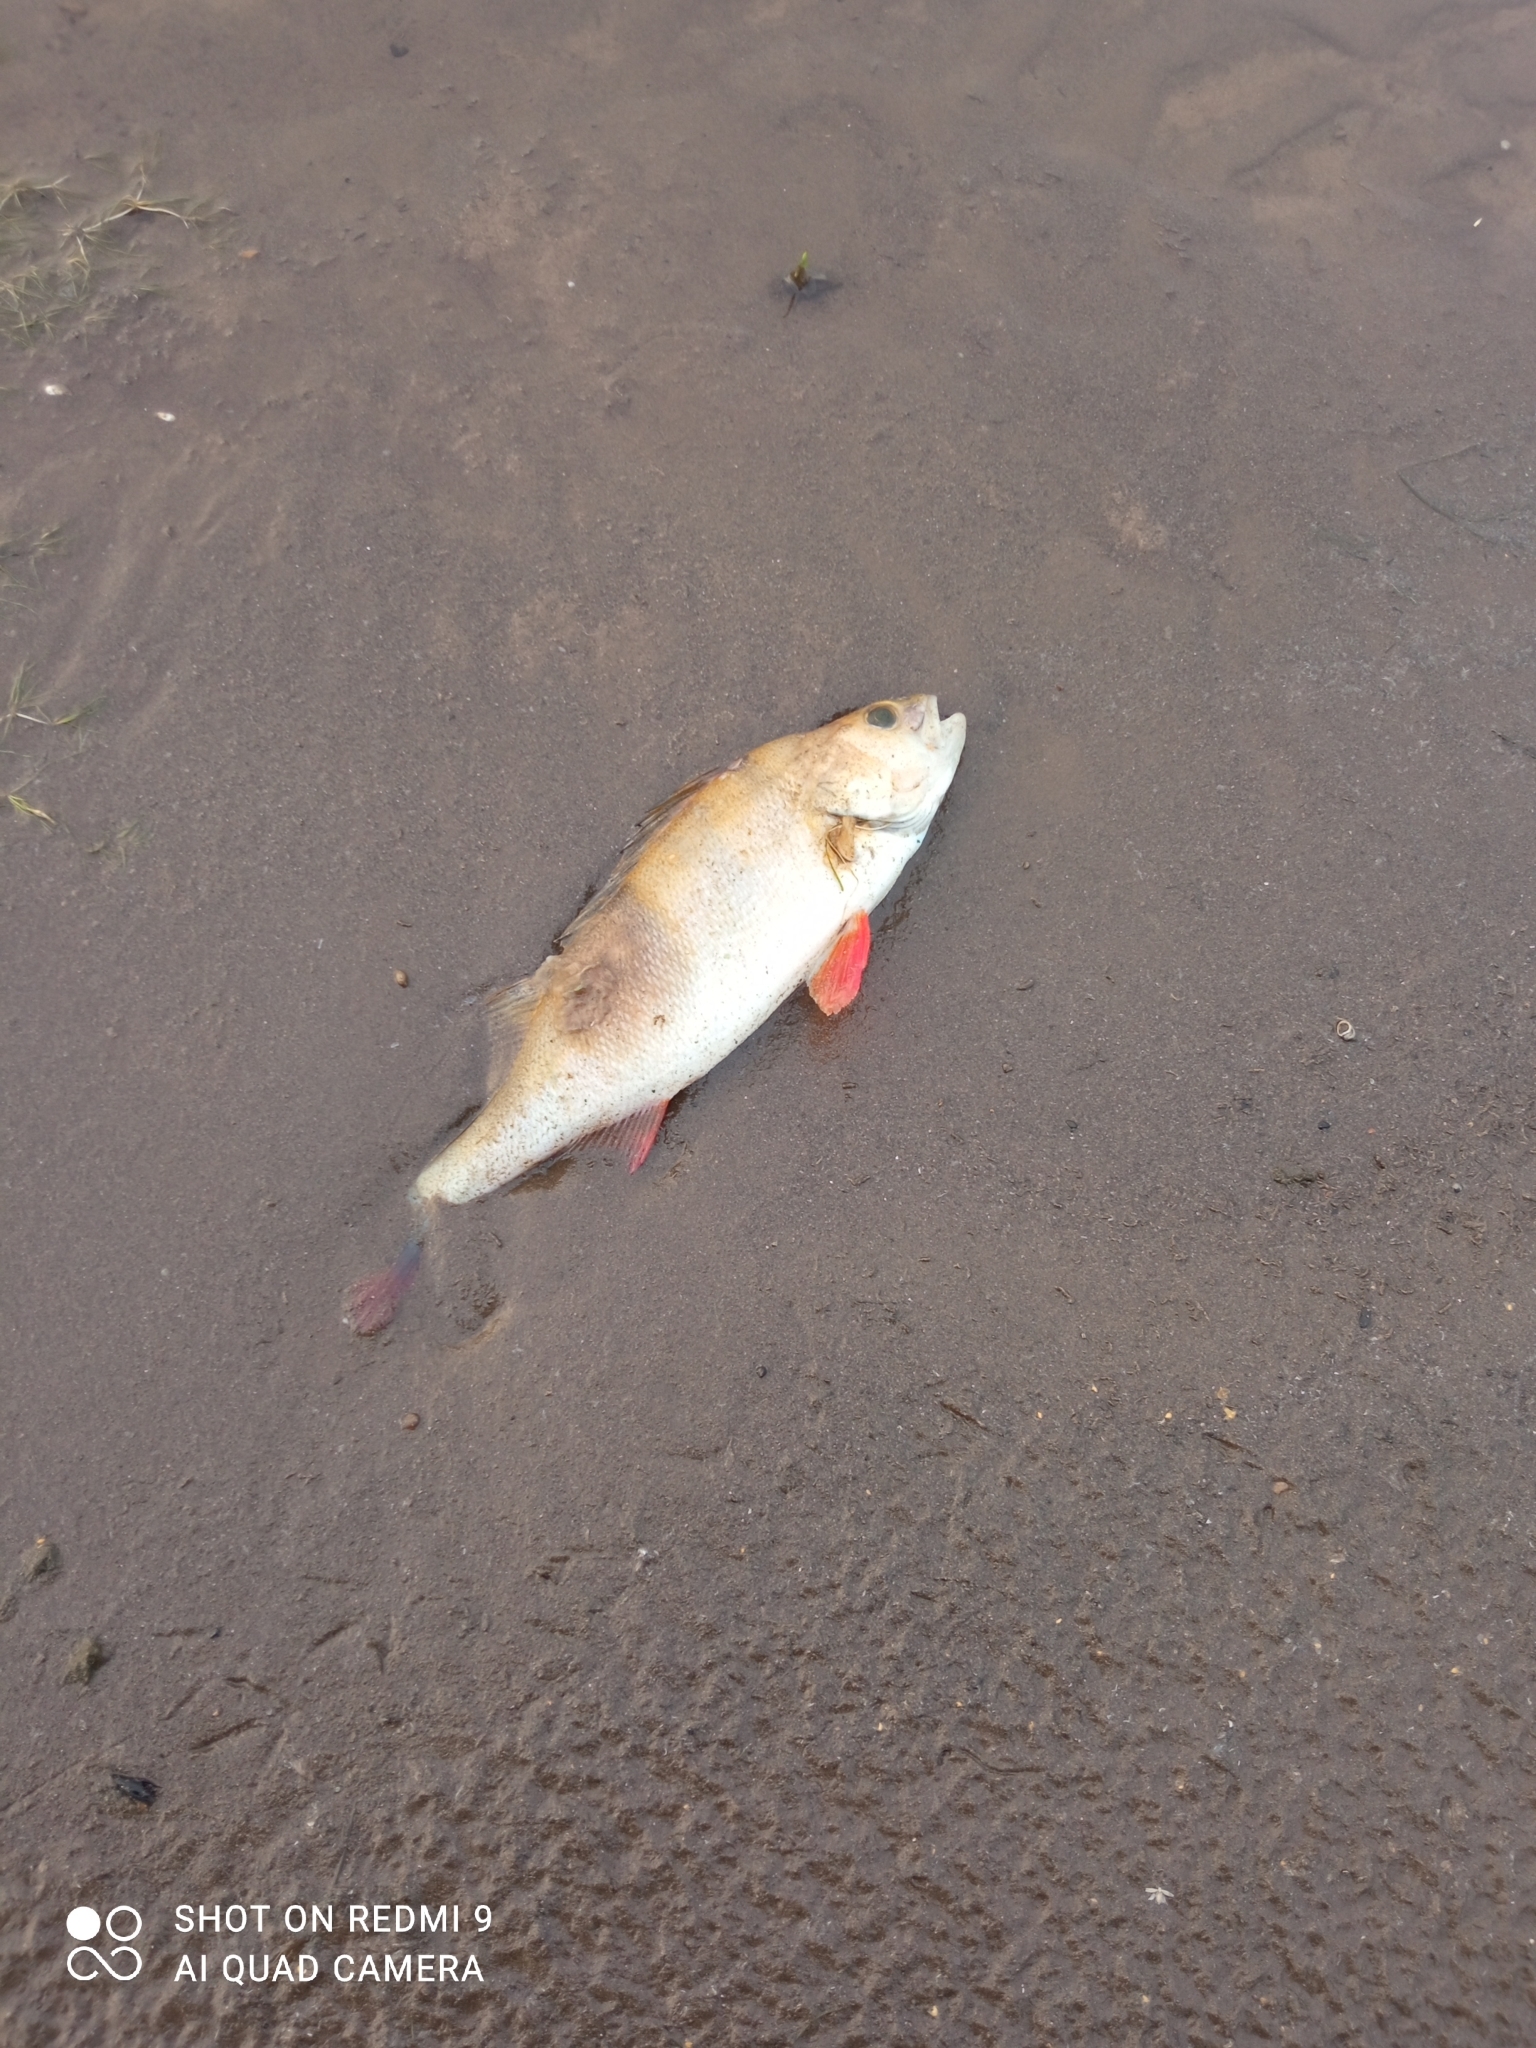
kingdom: Animalia
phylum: Chordata
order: Perciformes
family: Percidae
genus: Perca
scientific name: Perca fluviatilis
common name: Perch
